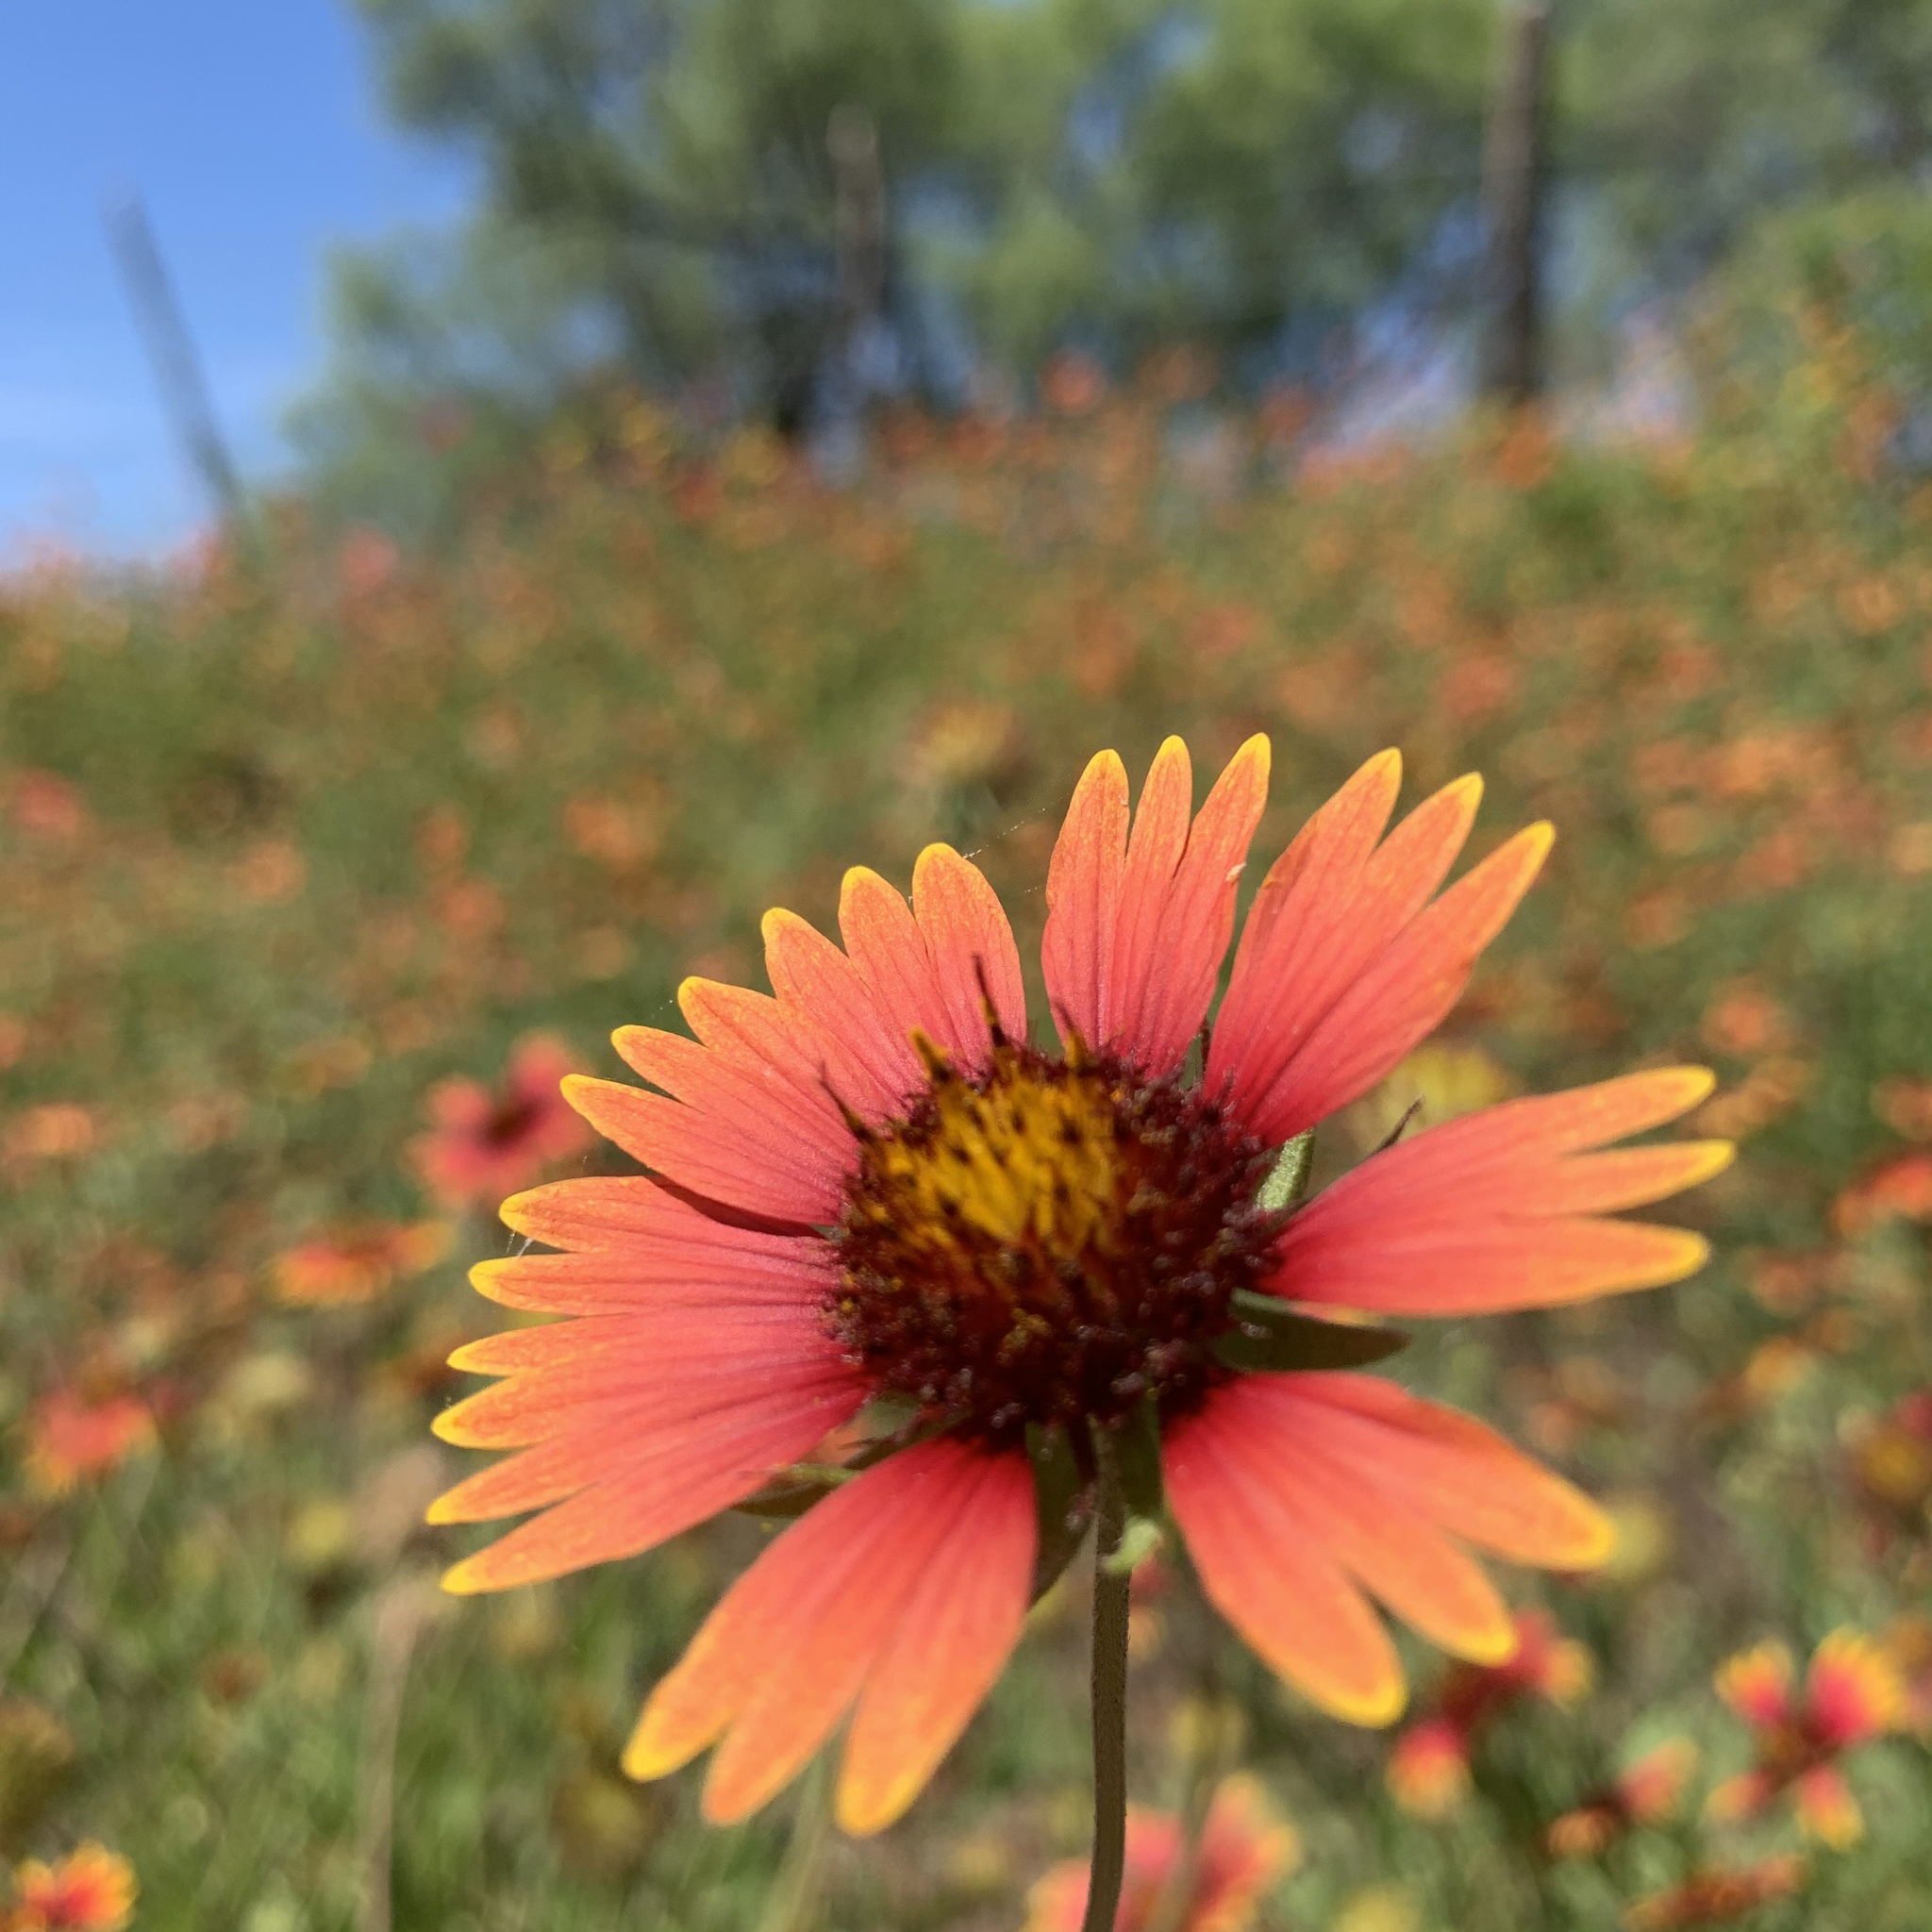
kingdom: Plantae
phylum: Tracheophyta
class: Magnoliopsida
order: Asterales
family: Asteraceae
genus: Gaillardia
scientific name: Gaillardia pulchella
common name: Firewheel
